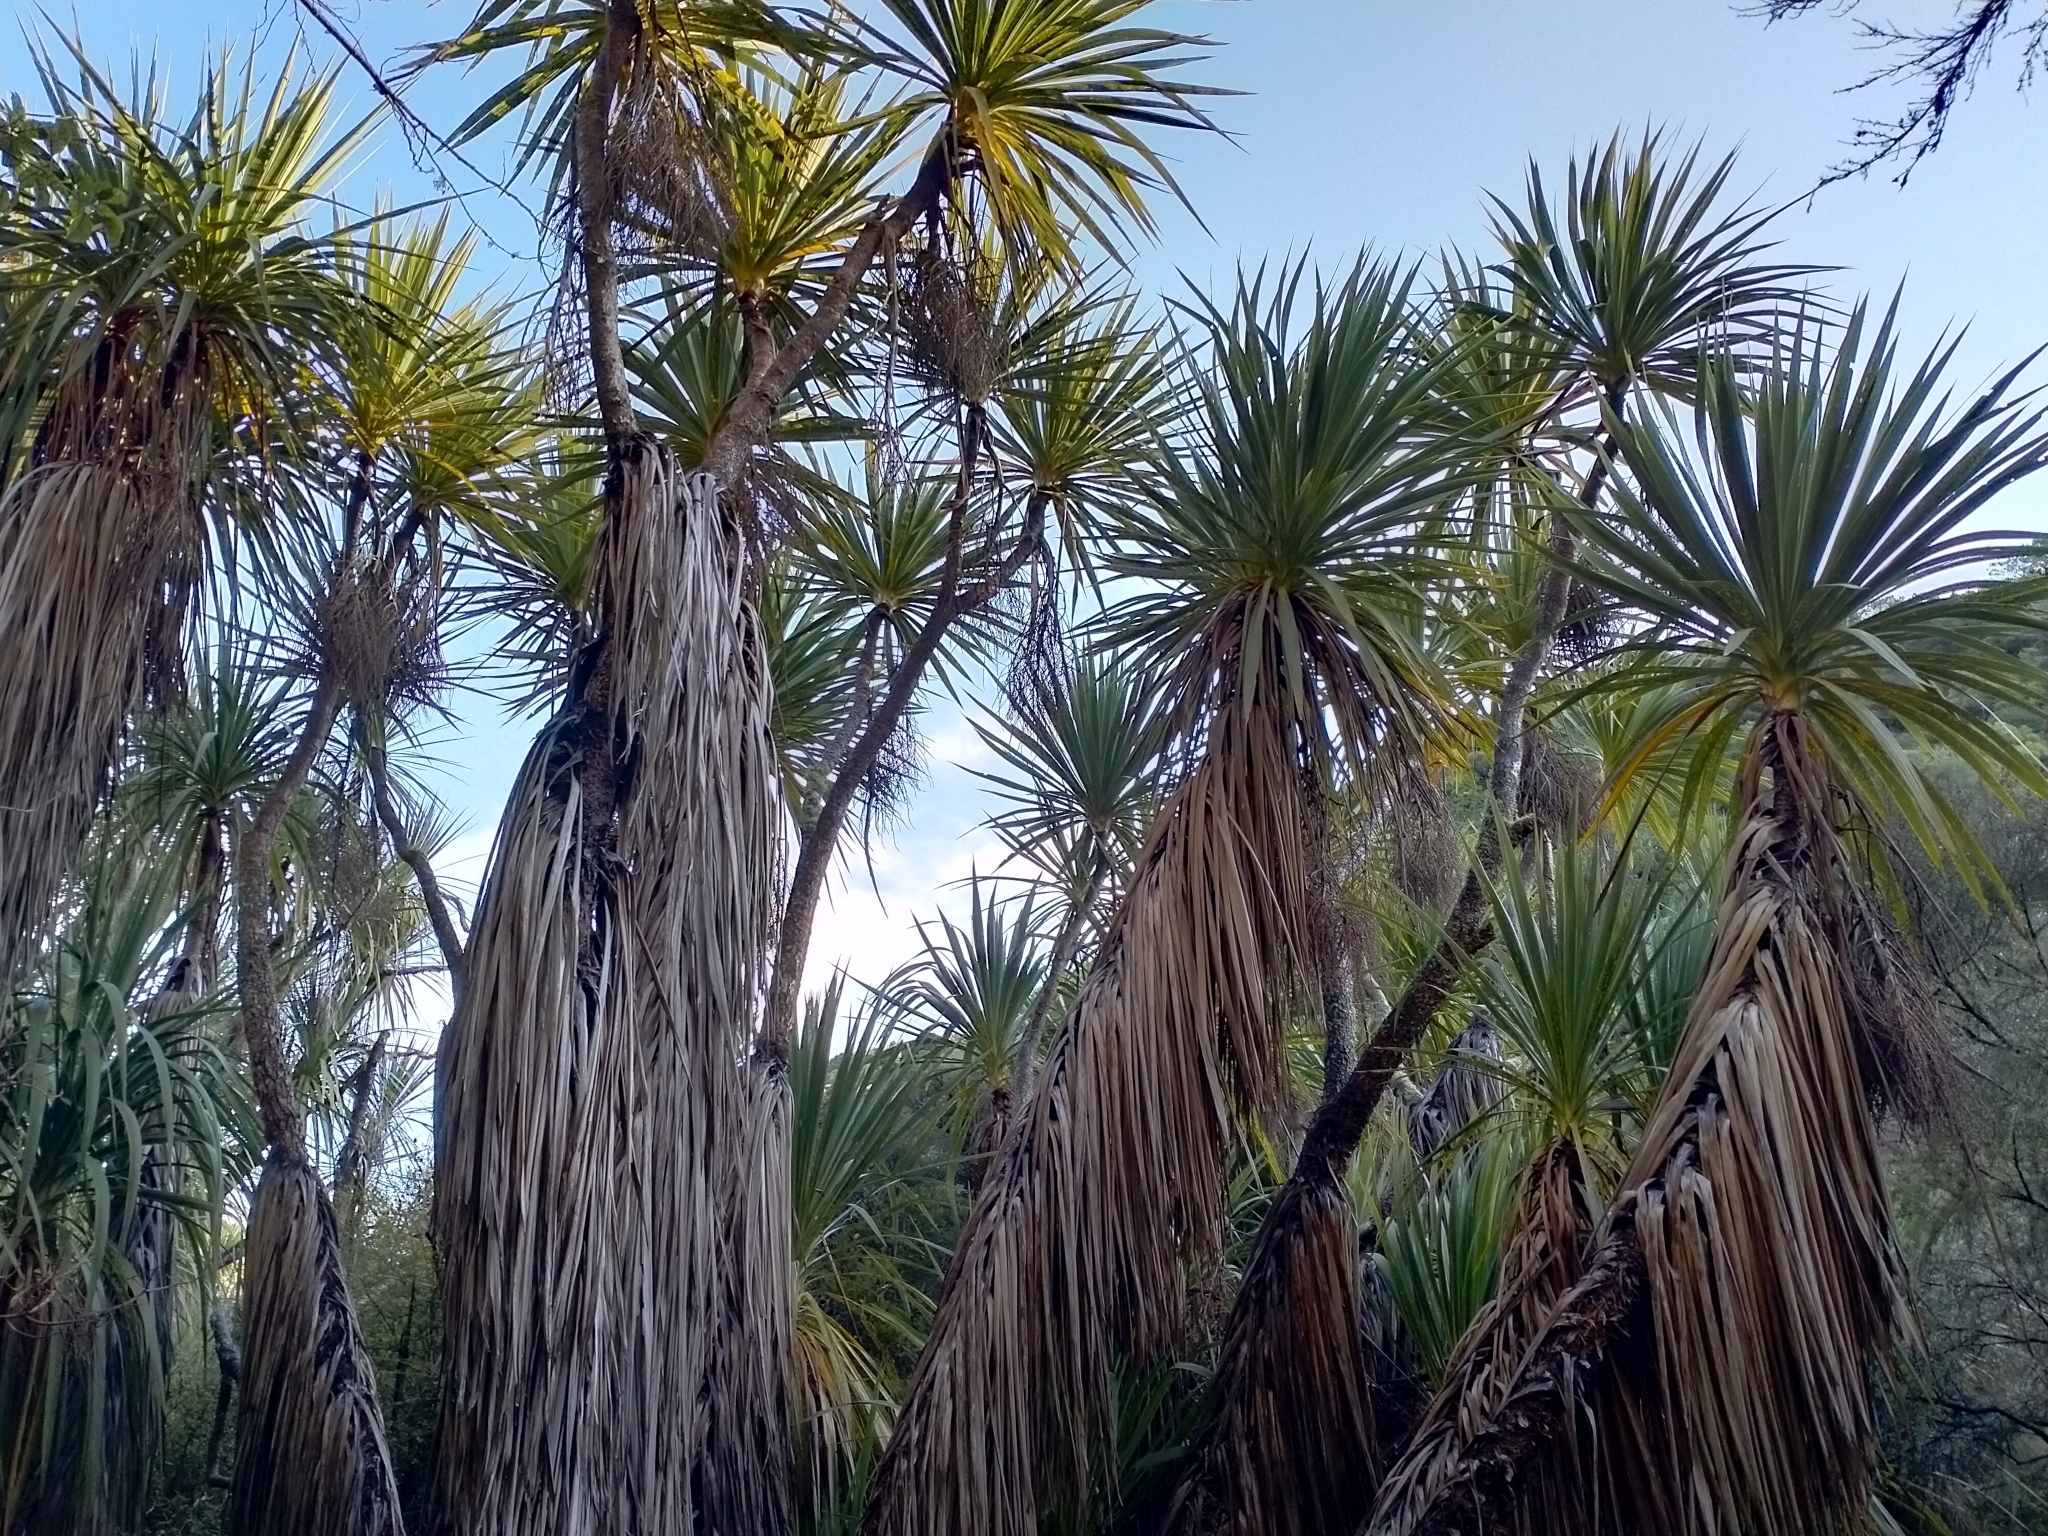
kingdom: Plantae
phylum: Tracheophyta
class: Liliopsida
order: Asparagales
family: Asparagaceae
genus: Cordyline
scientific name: Cordyline australis
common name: Cabbage-palm
